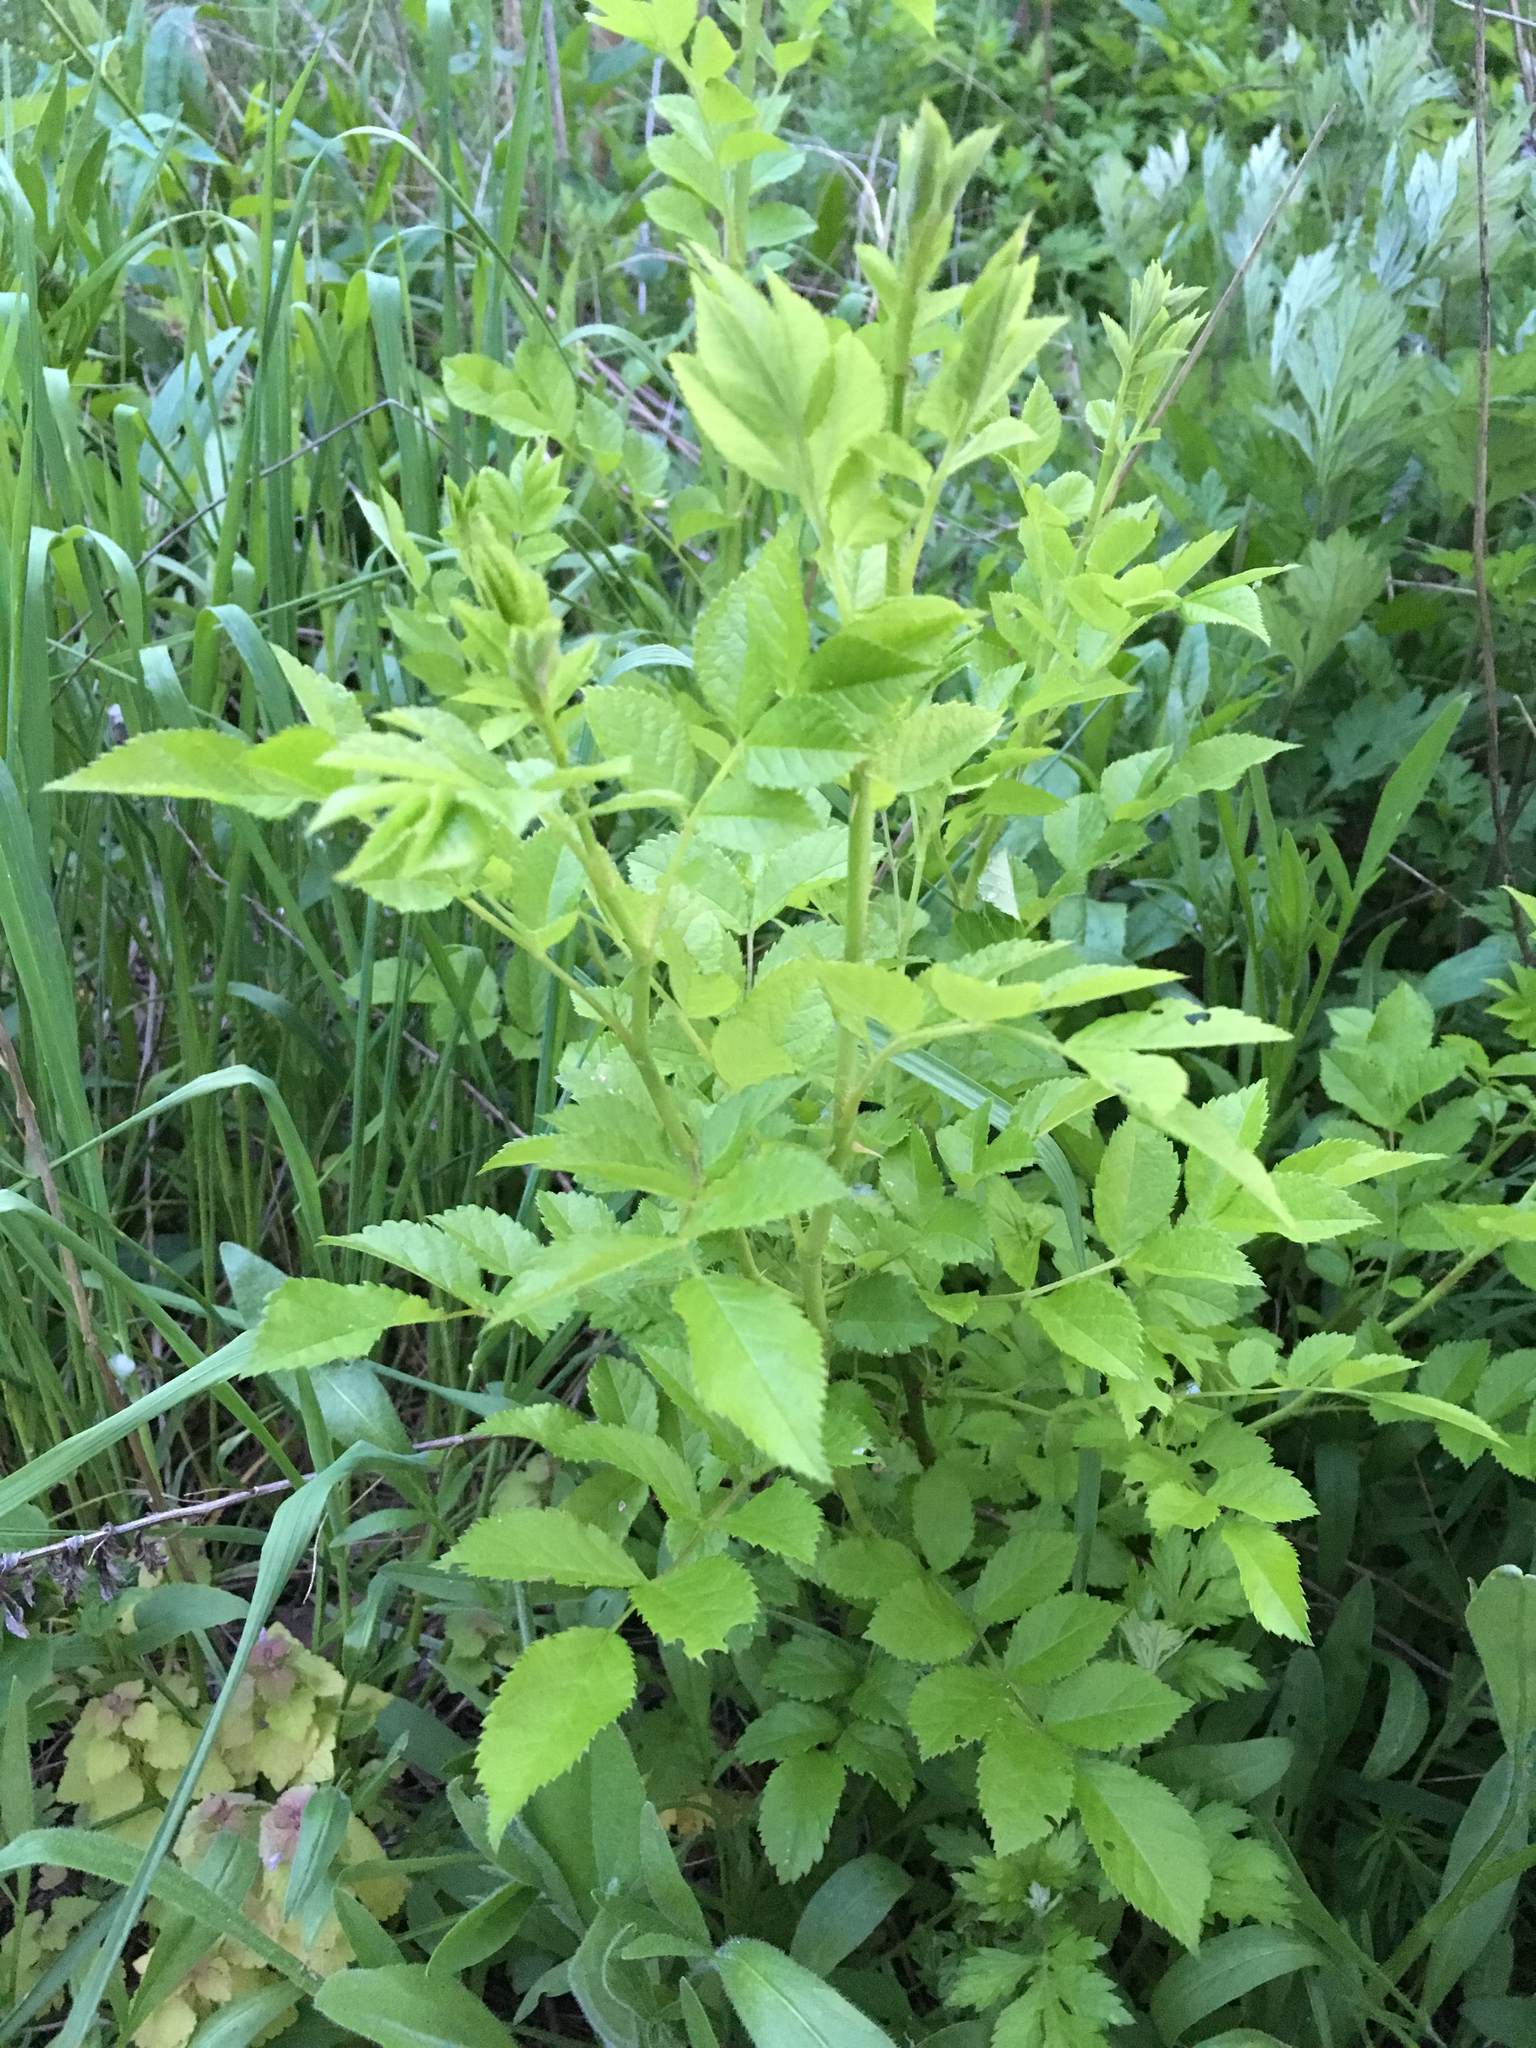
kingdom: Plantae
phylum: Tracheophyta
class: Magnoliopsida
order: Rosales
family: Rosaceae
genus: Rosa
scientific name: Rosa multiflora
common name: Multiflora rose
